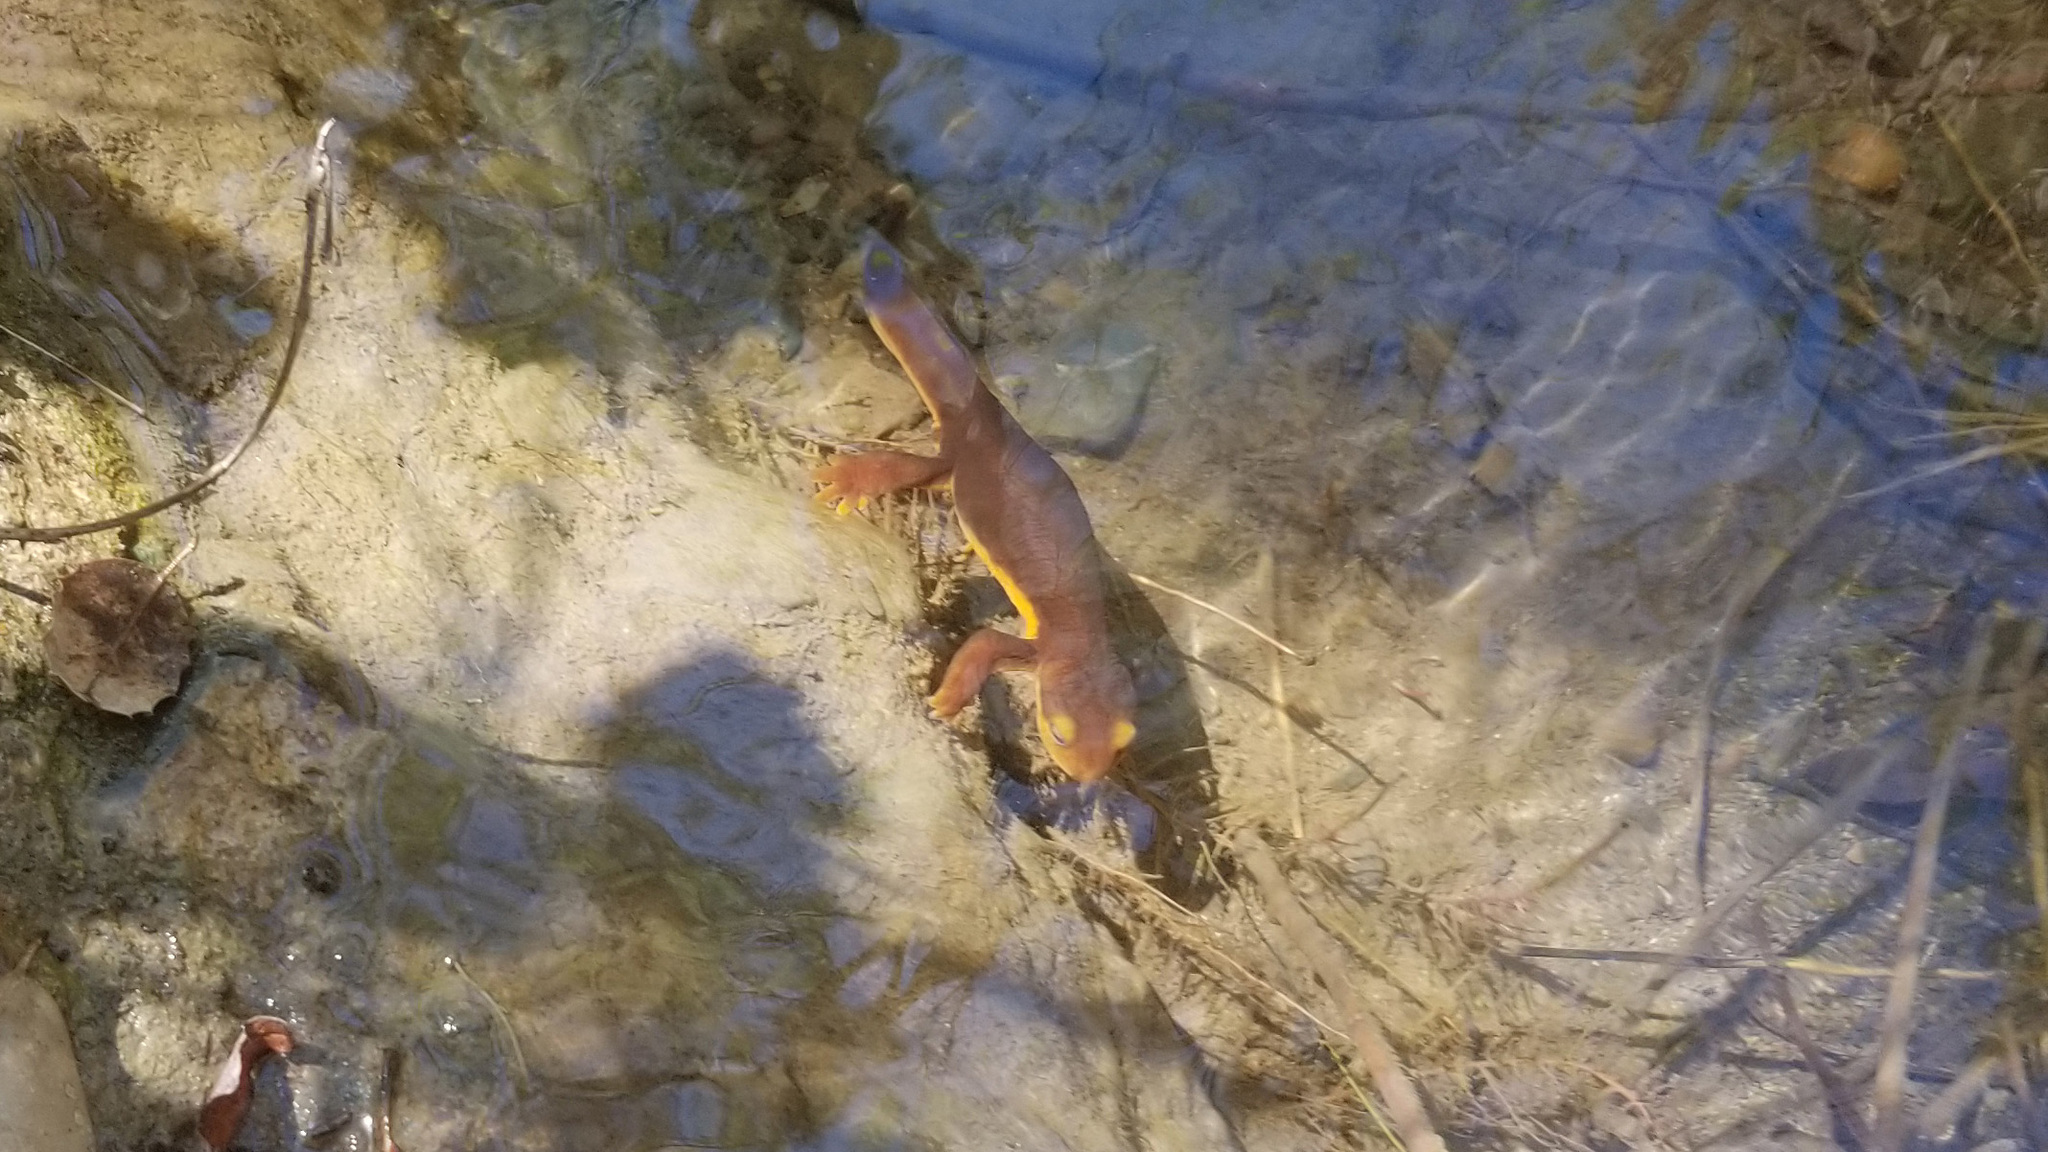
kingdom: Animalia
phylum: Chordata
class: Amphibia
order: Caudata
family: Salamandridae
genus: Taricha
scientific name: Taricha torosa
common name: California newt
